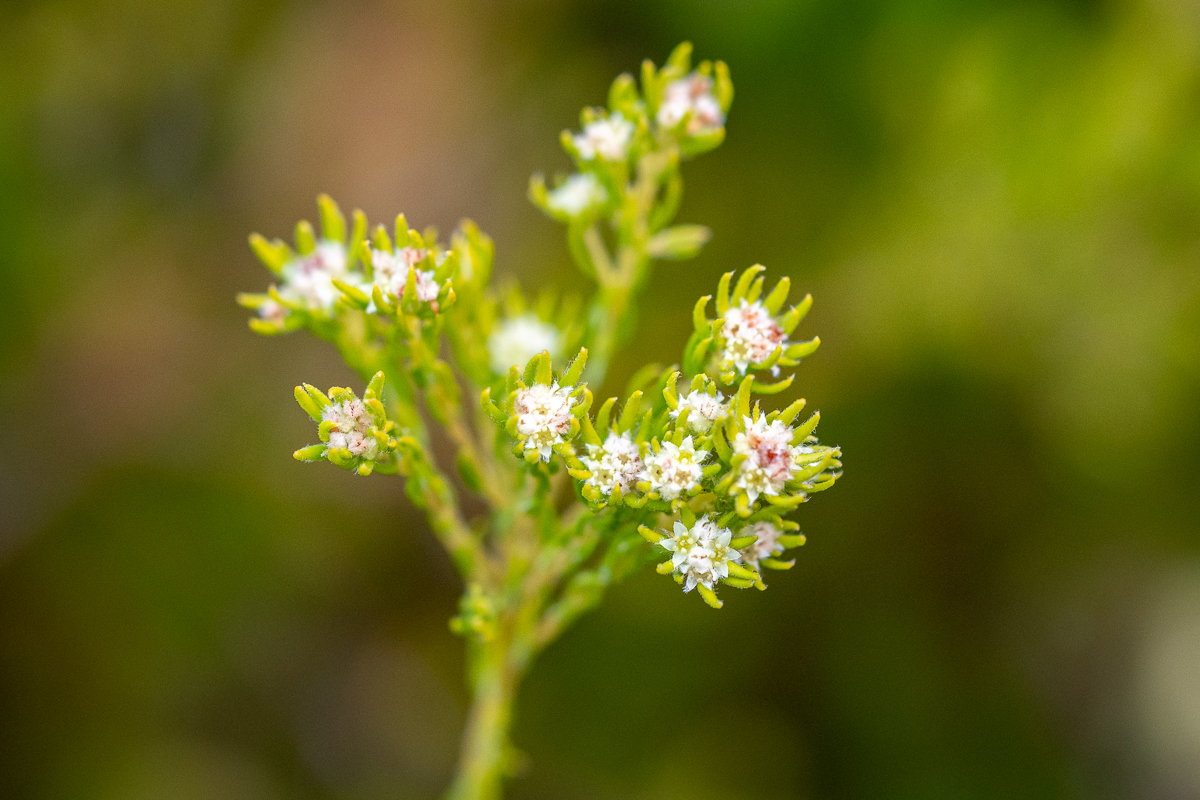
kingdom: Plantae
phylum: Tracheophyta
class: Magnoliopsida
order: Rosales
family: Rhamnaceae
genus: Phylica
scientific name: Phylica minutiflora
